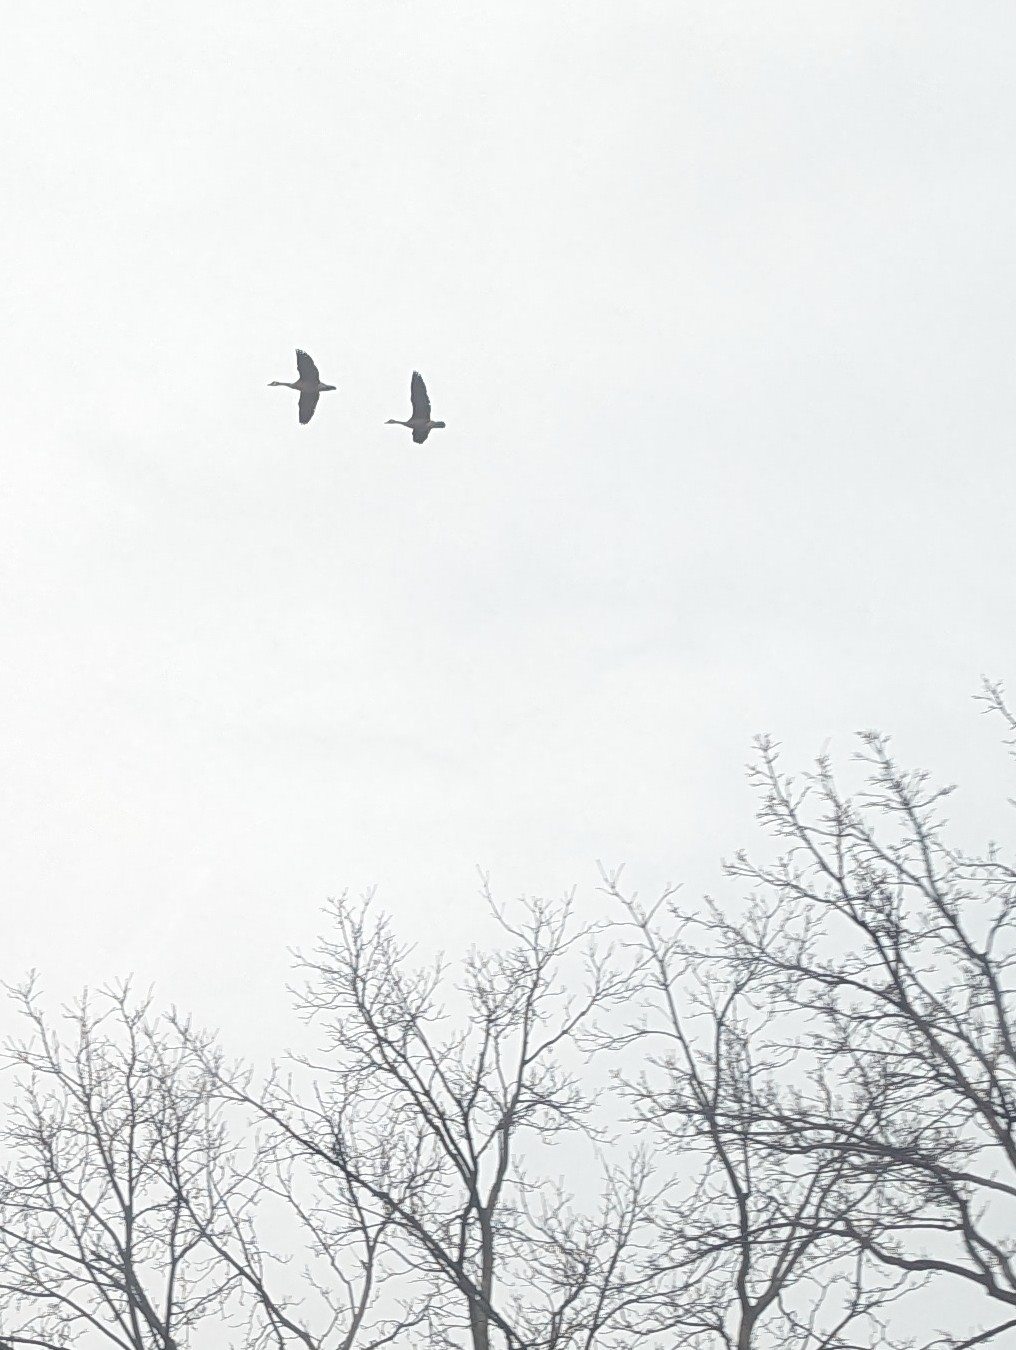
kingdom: Animalia
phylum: Chordata
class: Aves
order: Anseriformes
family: Anatidae
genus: Branta
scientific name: Branta canadensis
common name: Canada goose
